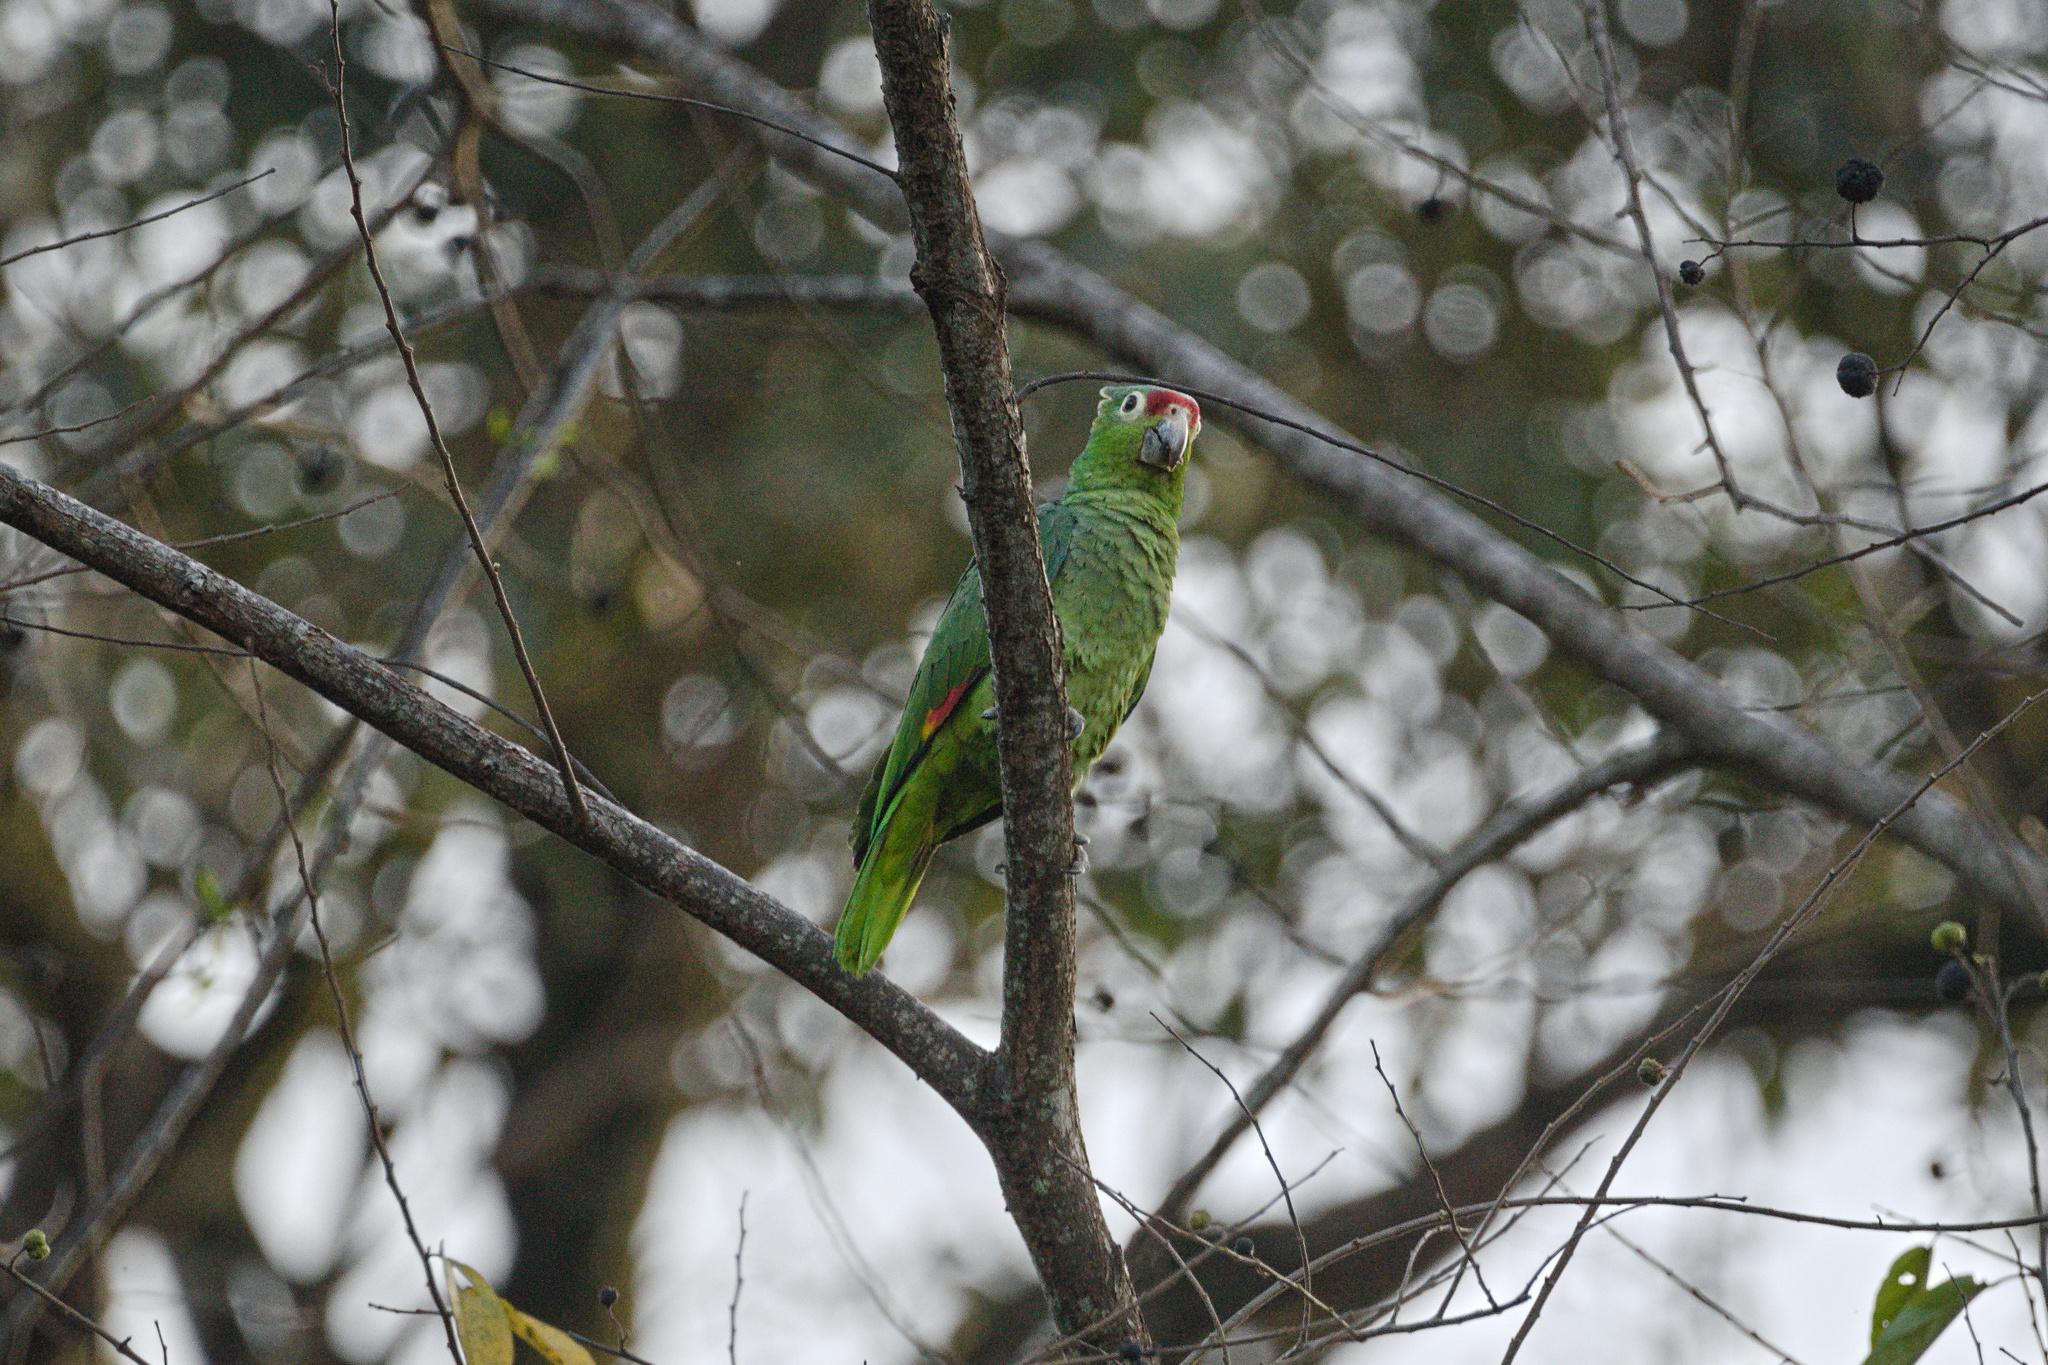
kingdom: Animalia
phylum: Chordata
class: Aves
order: Psittaciformes
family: Psittacidae
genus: Amazona
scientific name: Amazona autumnalis
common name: Red-lored amazon
